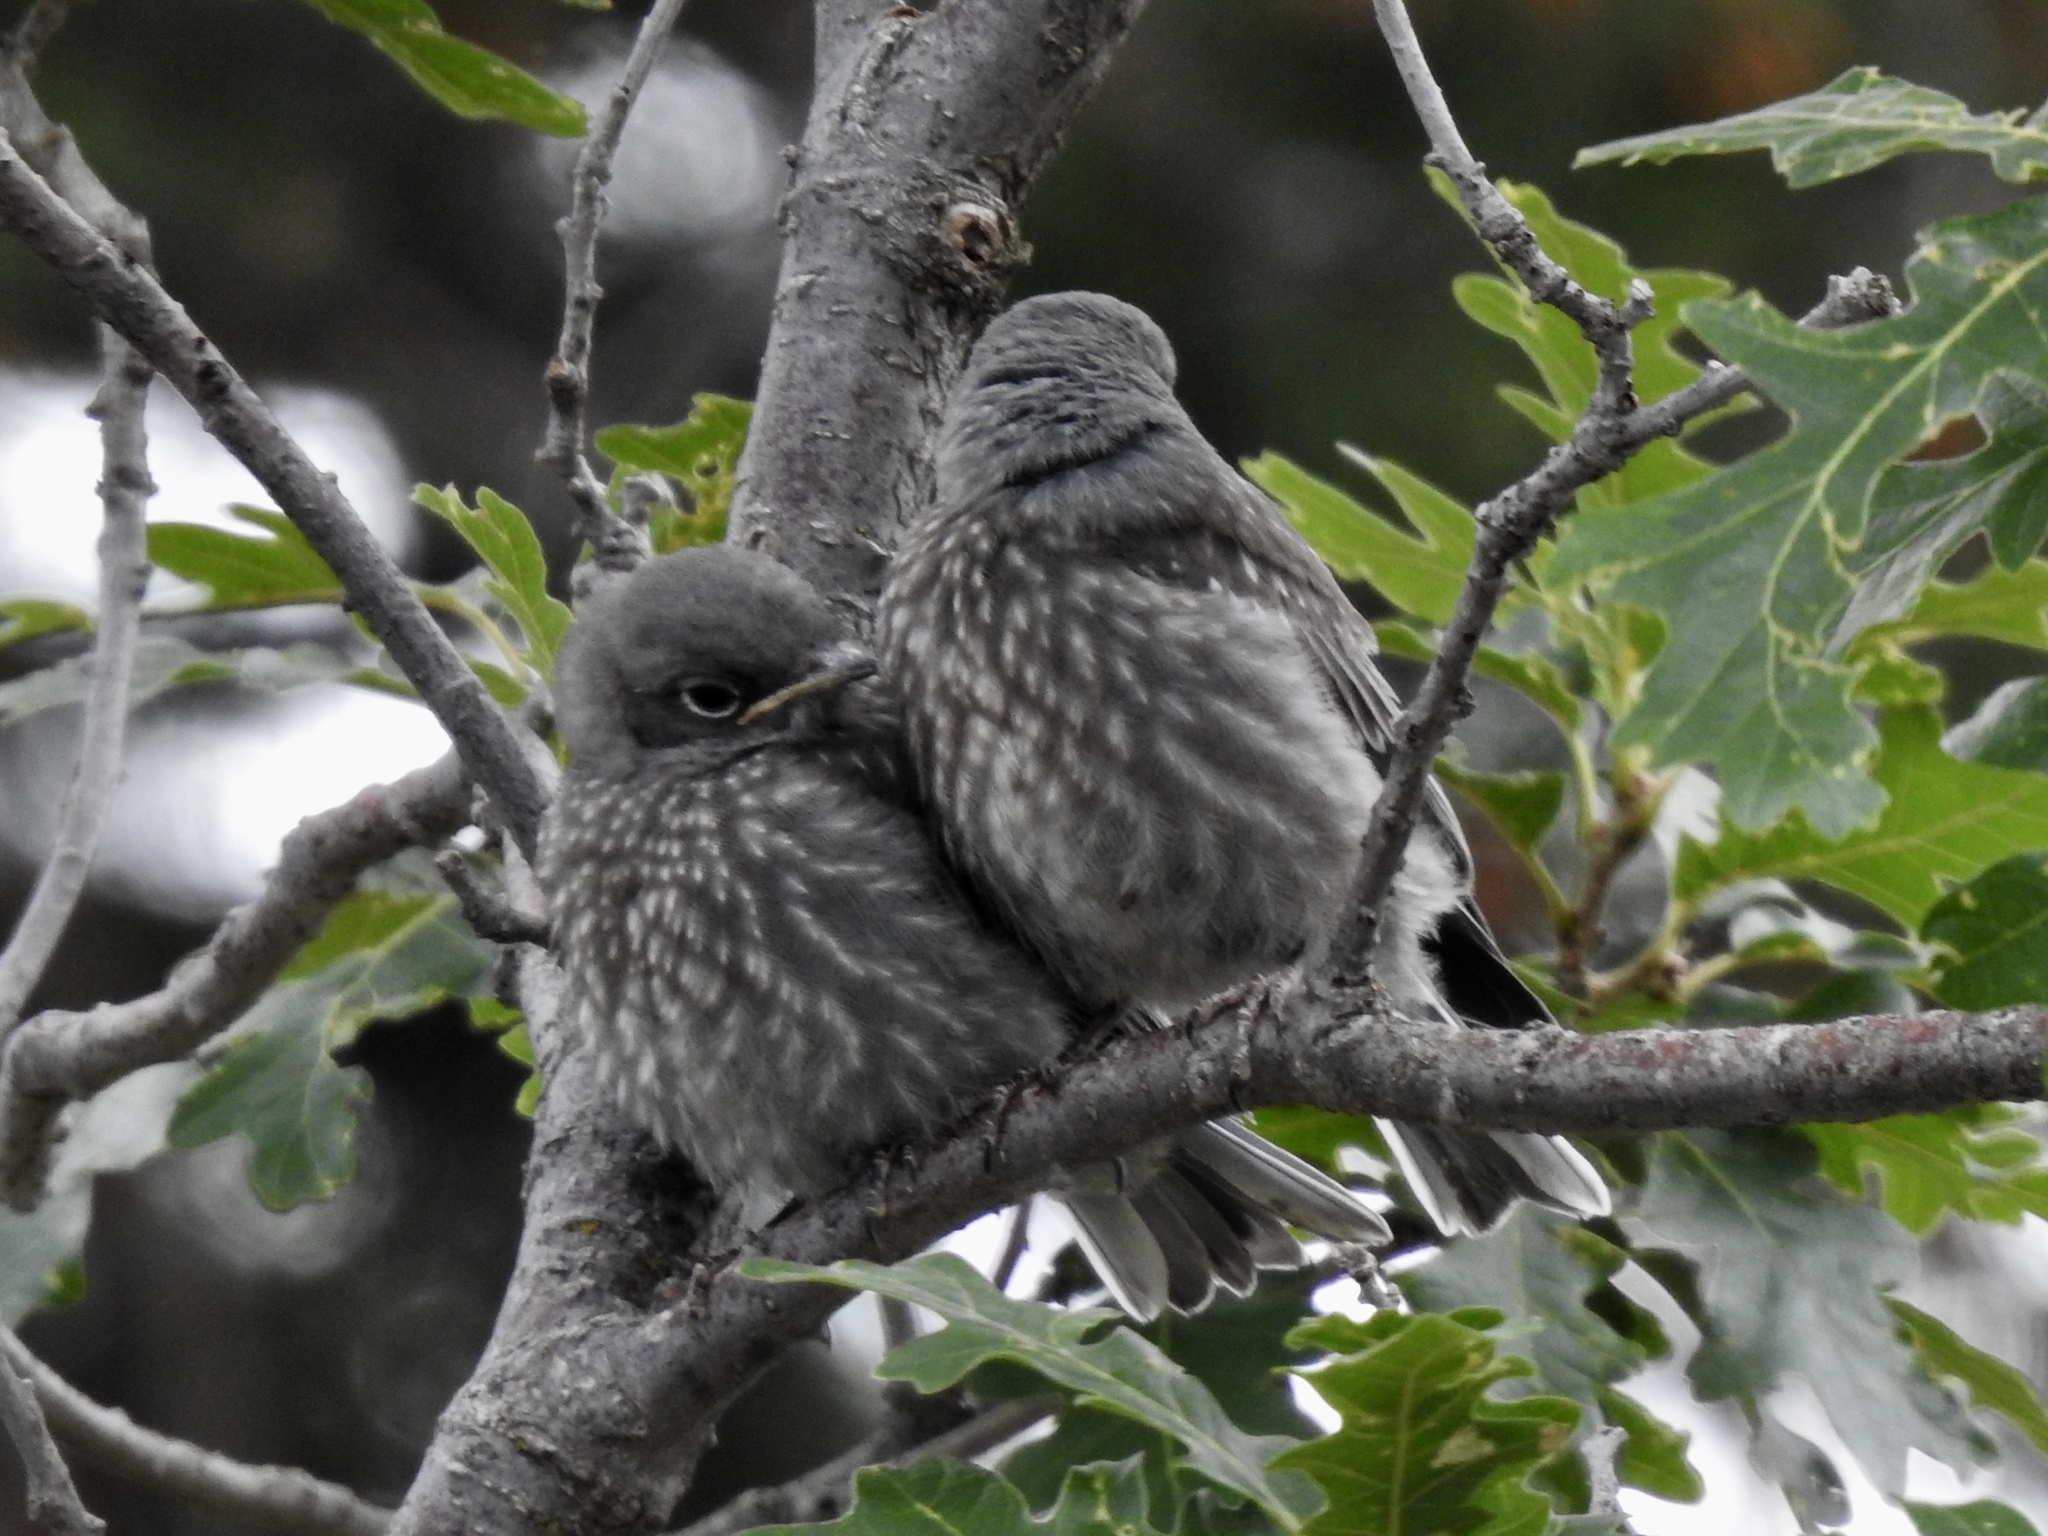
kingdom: Animalia
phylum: Chordata
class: Aves
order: Passeriformes
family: Turdidae
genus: Sialia
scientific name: Sialia currucoides
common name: Mountain bluebird
